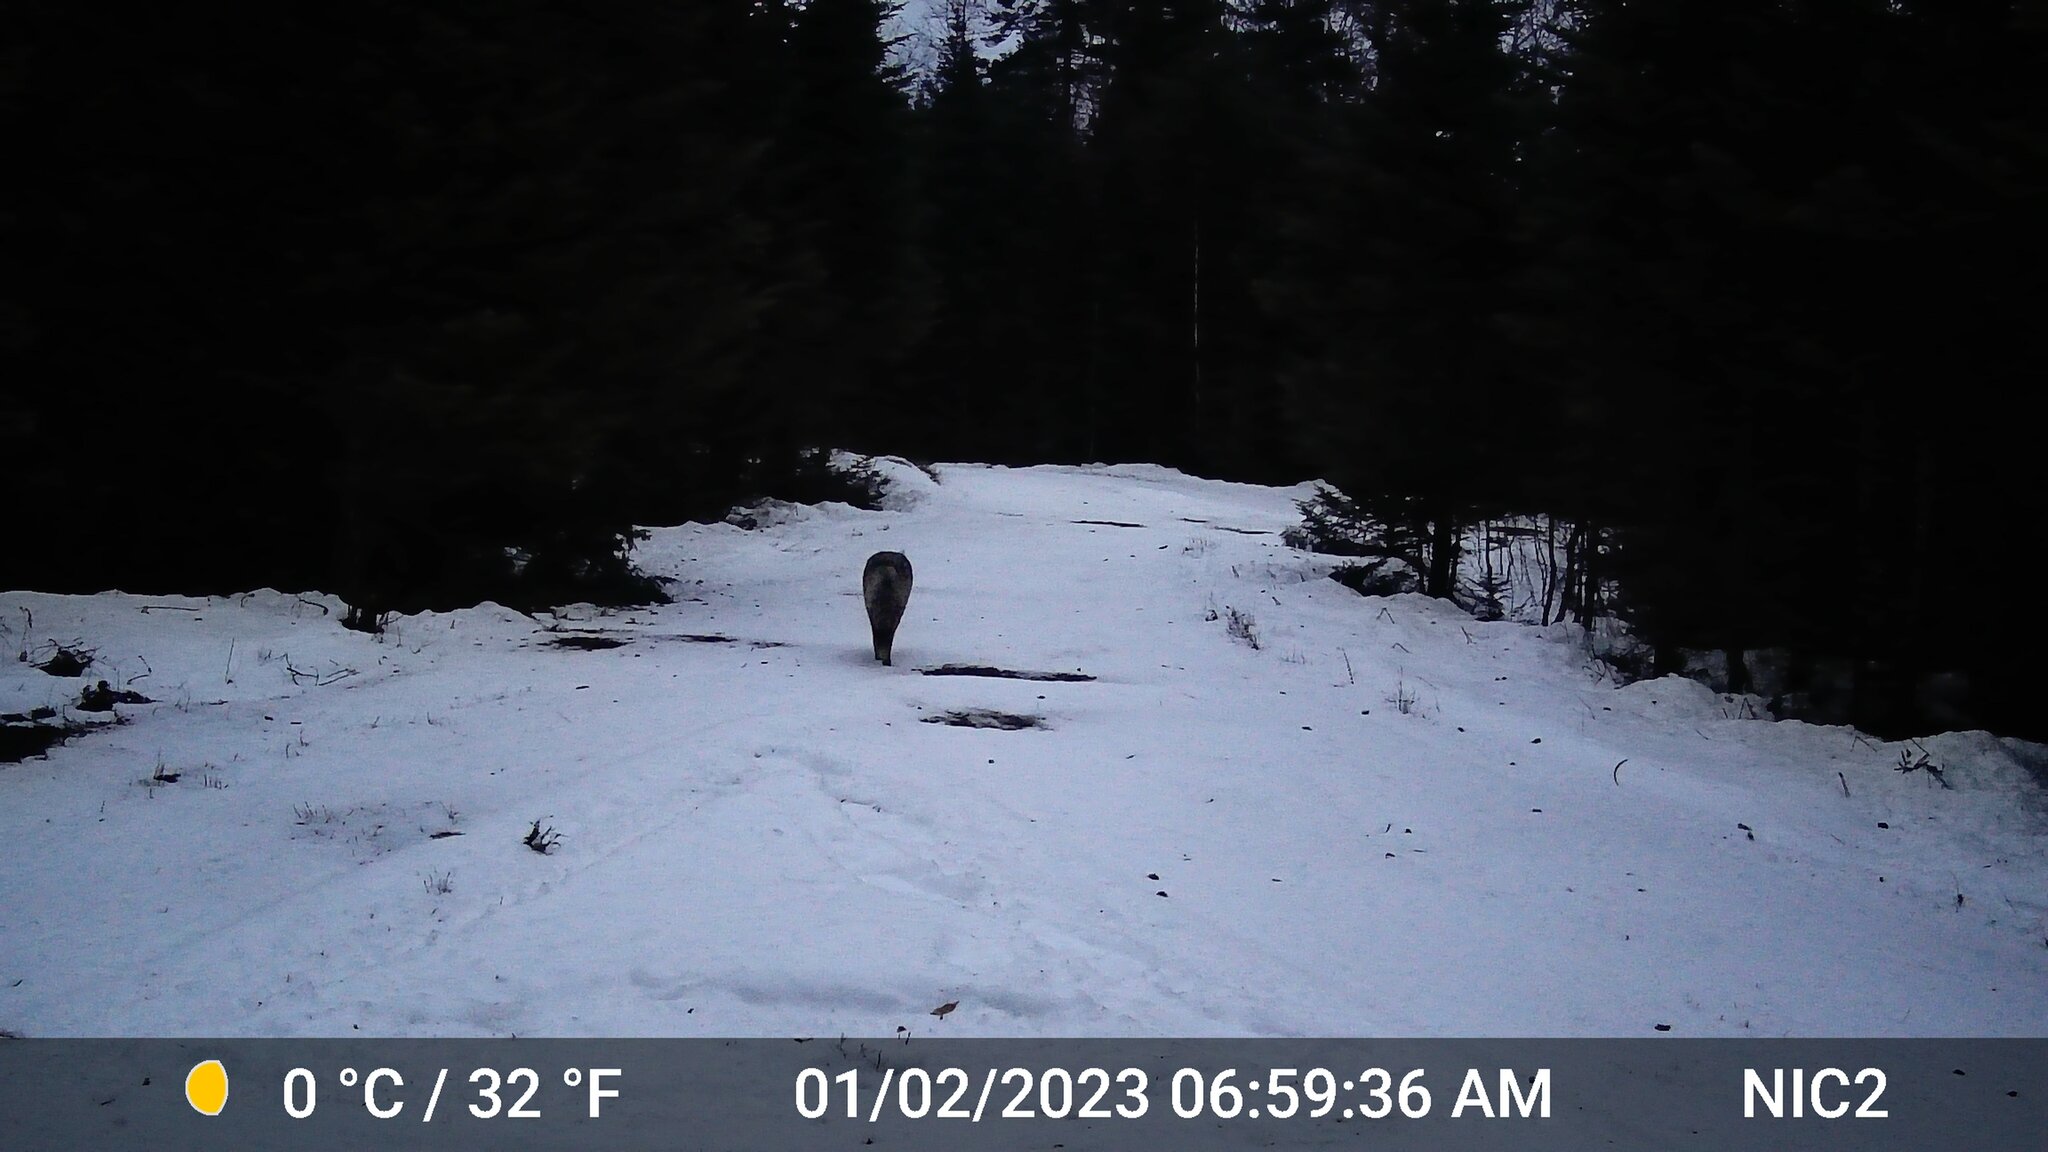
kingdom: Animalia
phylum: Chordata
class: Mammalia
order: Carnivora
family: Canidae
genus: Canis
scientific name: Canis latrans
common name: Coyote
